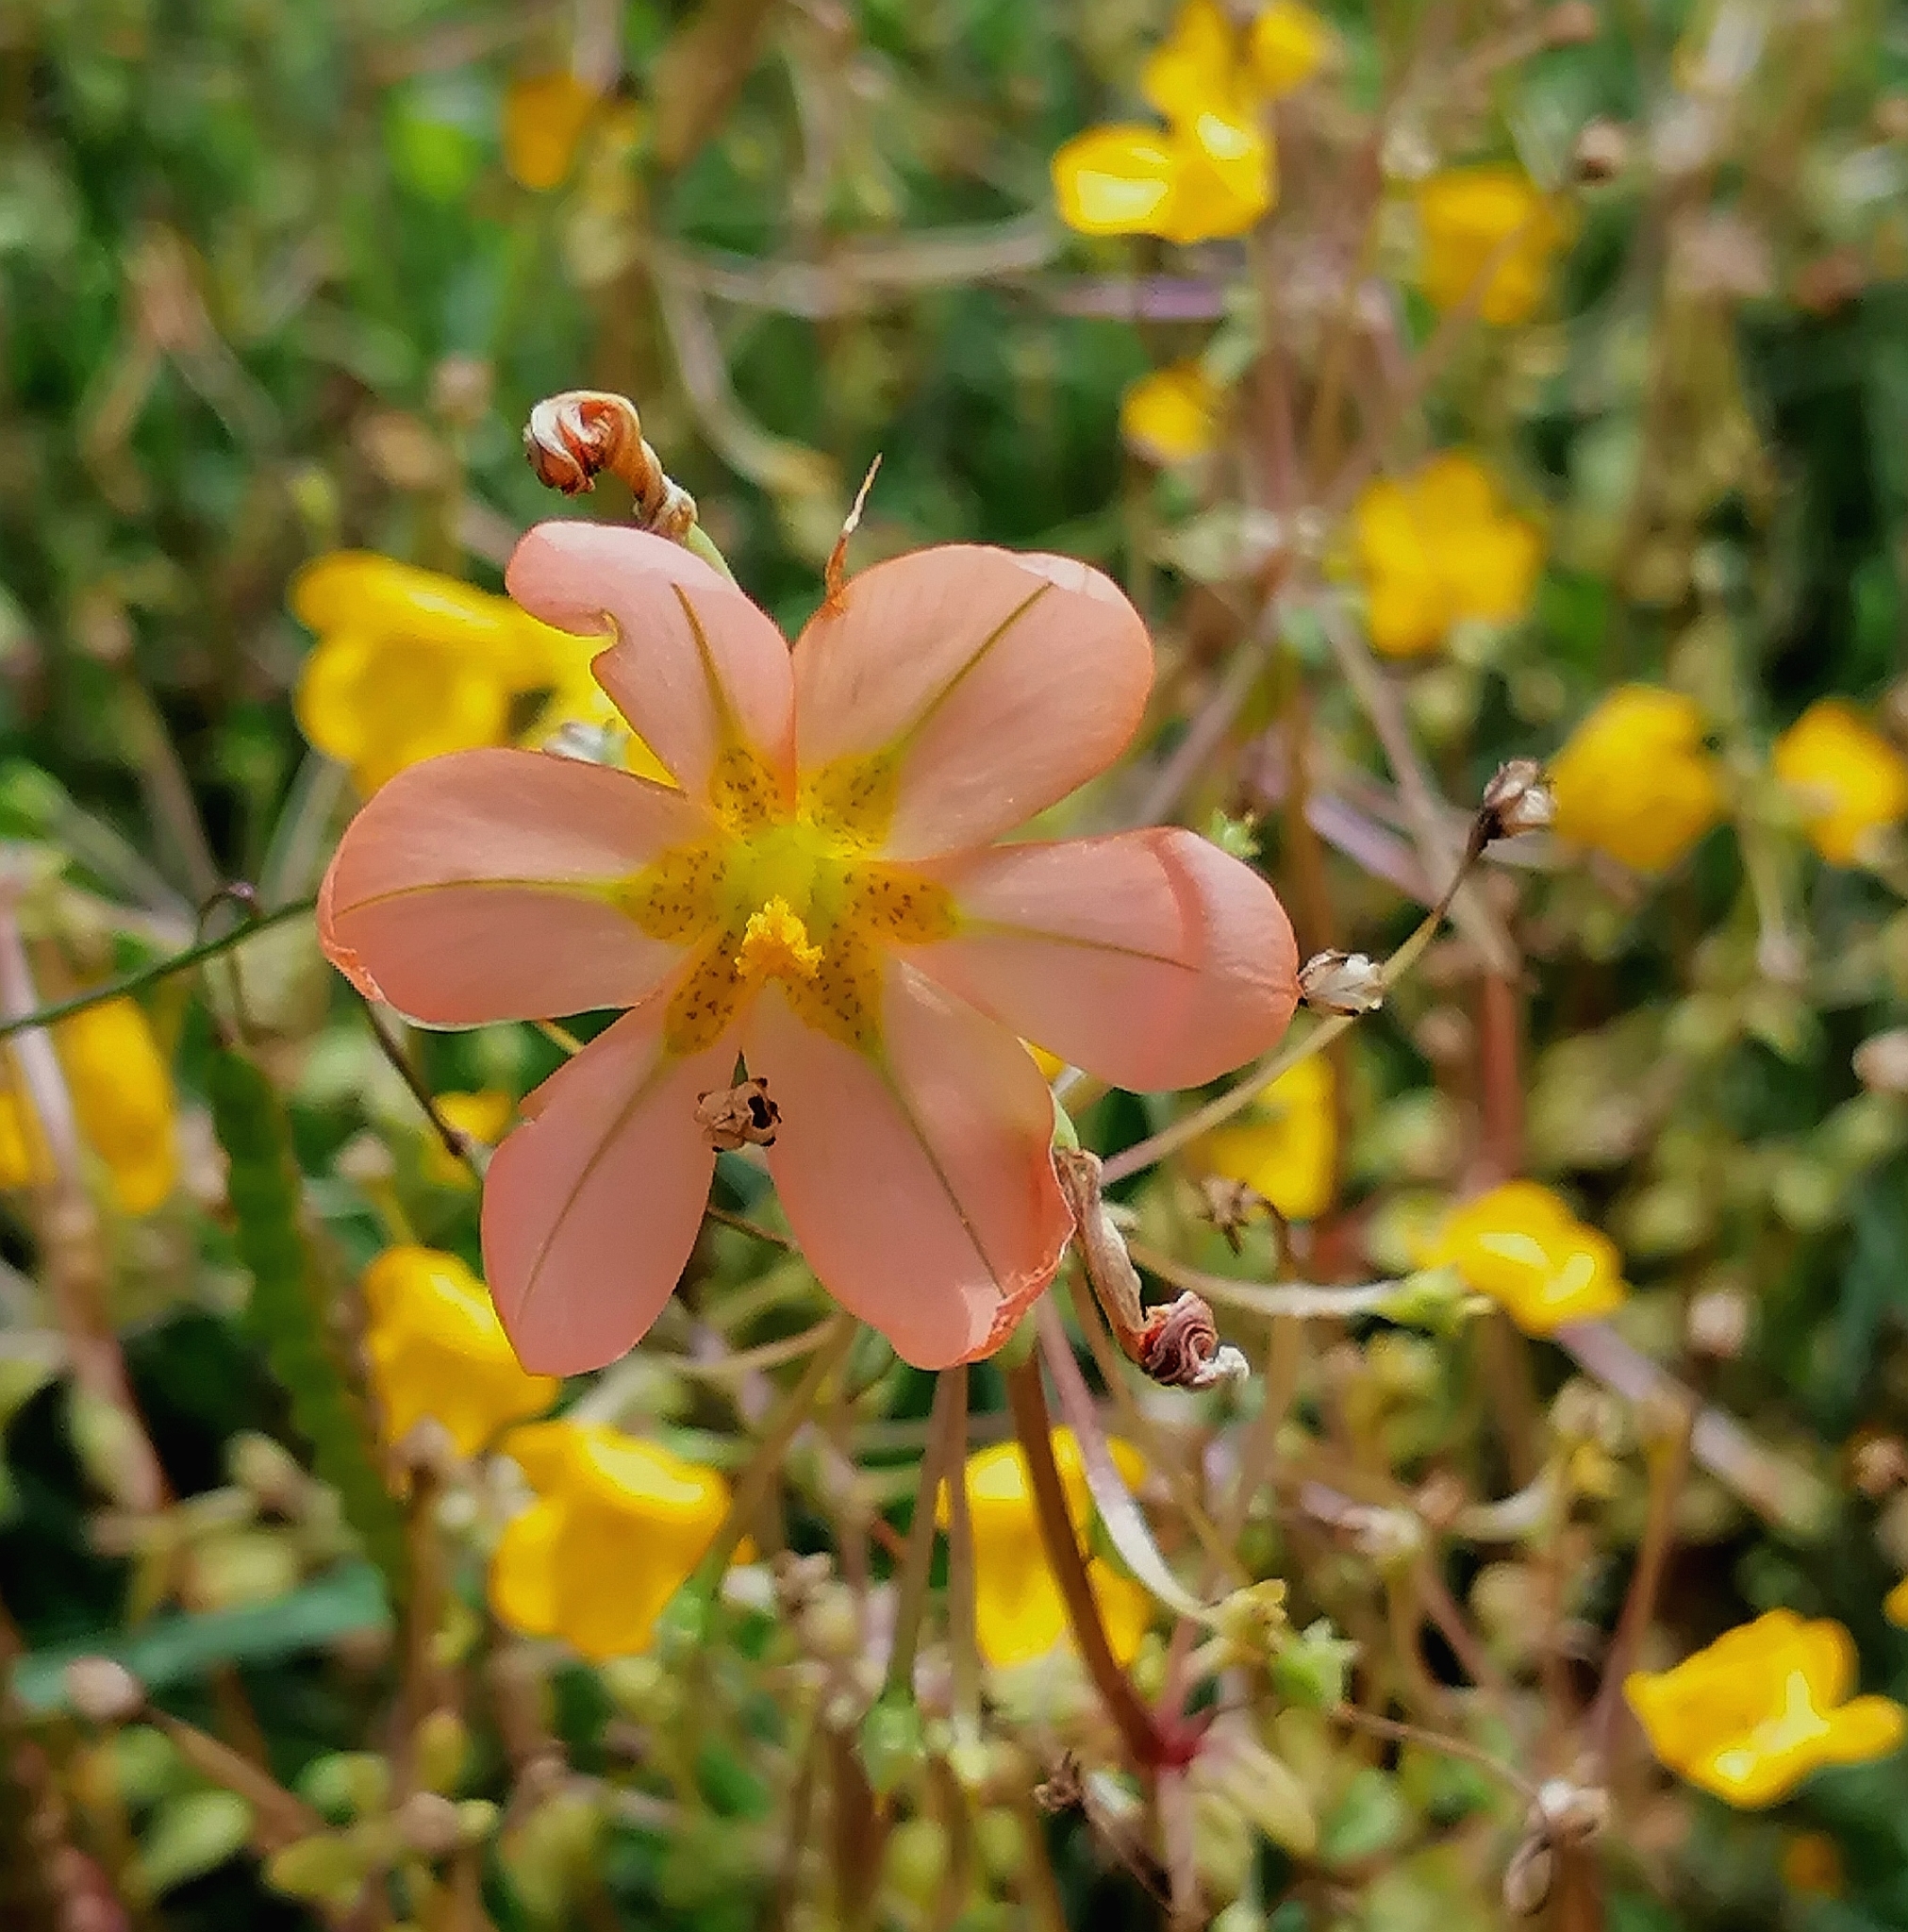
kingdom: Plantae
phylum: Tracheophyta
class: Liliopsida
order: Asparagales
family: Iridaceae
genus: Moraea
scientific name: Moraea miniata
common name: Two-leaf cape-tulip
